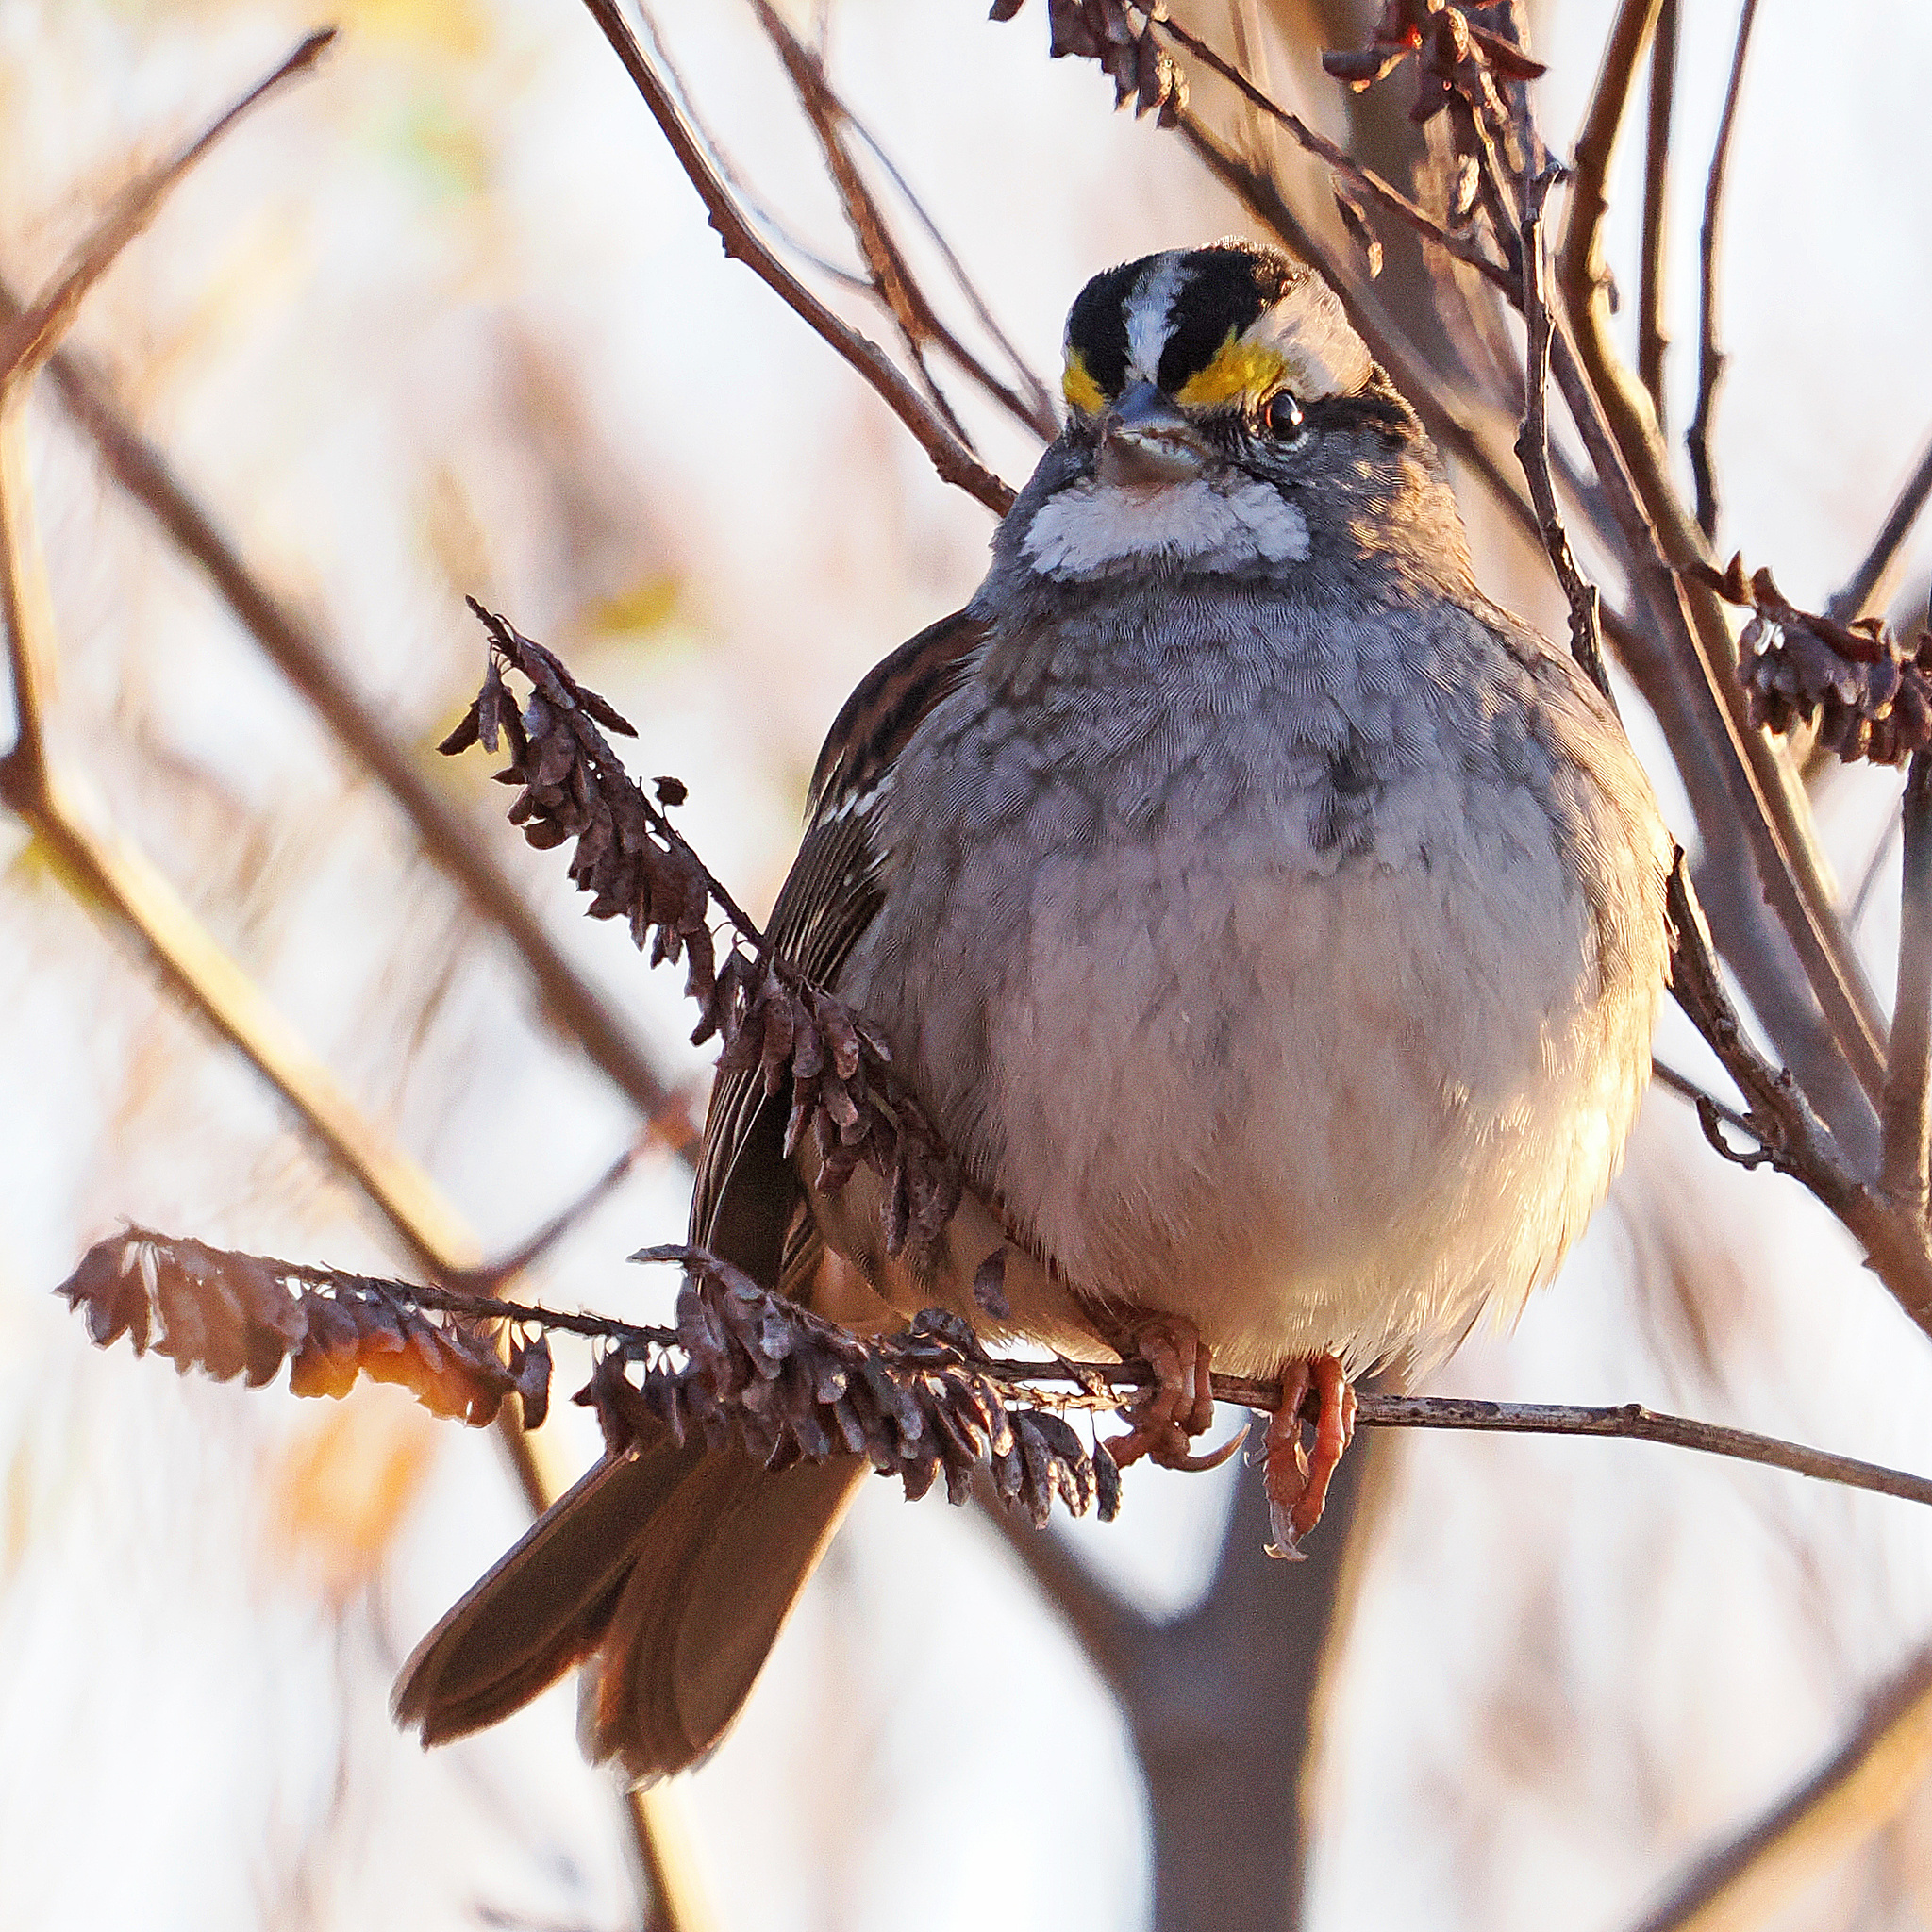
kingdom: Animalia
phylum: Chordata
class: Aves
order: Passeriformes
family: Passerellidae
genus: Zonotrichia
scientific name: Zonotrichia albicollis
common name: White-throated sparrow
